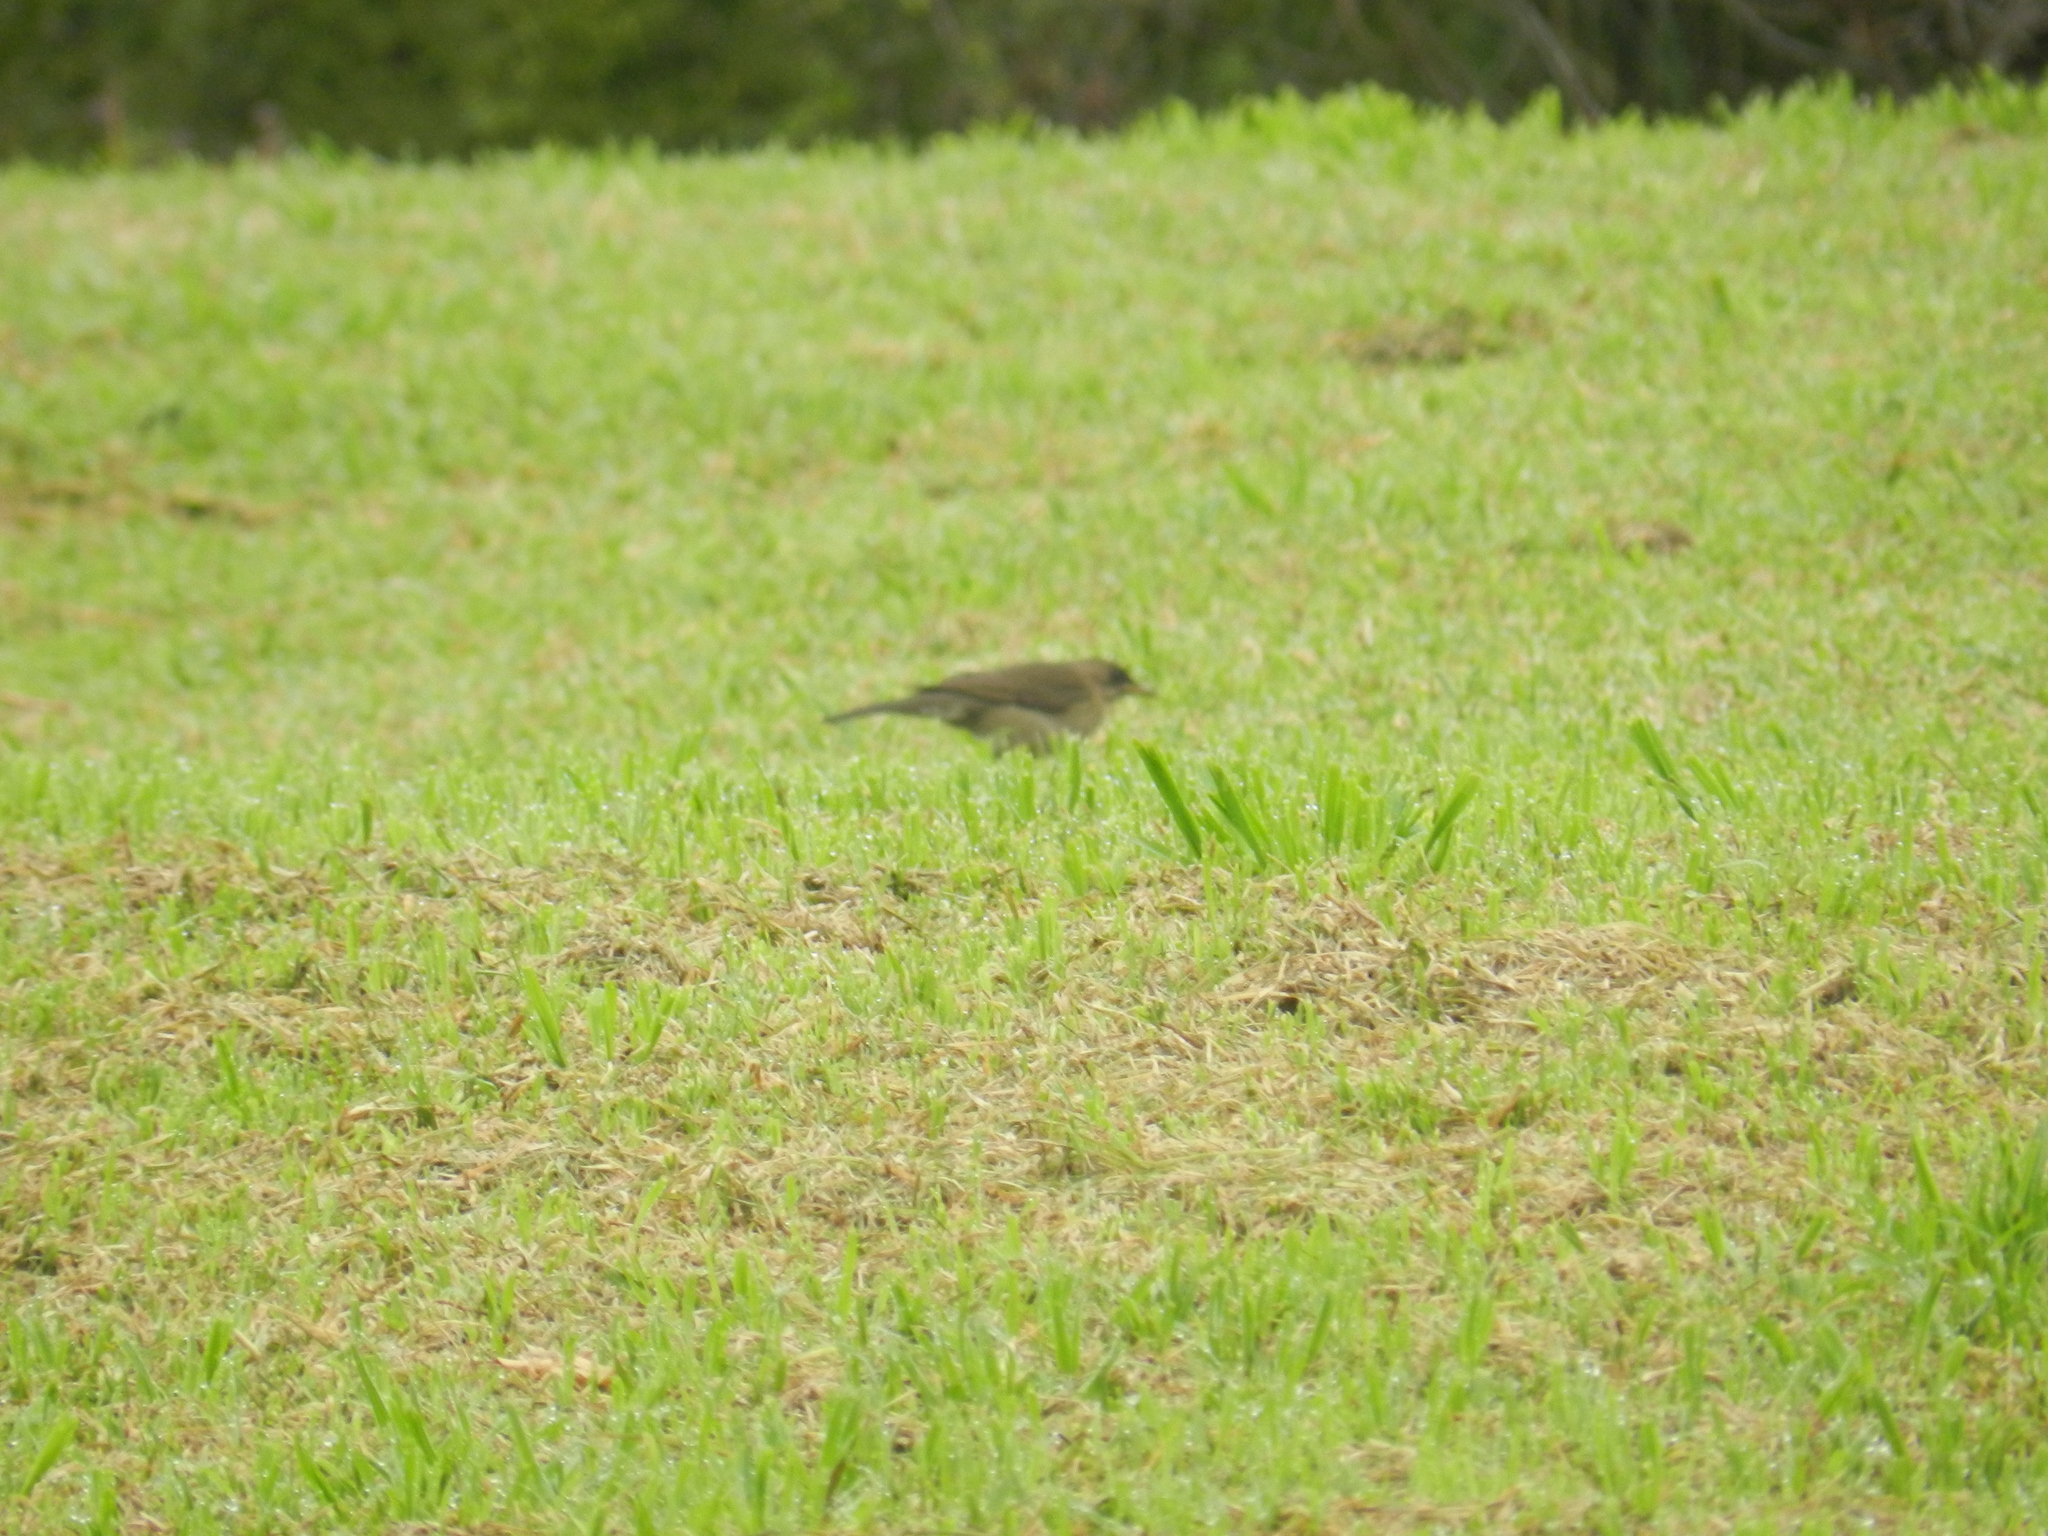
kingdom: Animalia
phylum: Chordata
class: Aves
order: Passeriformes
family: Turdidae
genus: Turdus
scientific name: Turdus amaurochalinus
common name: Creamy-bellied thrush
